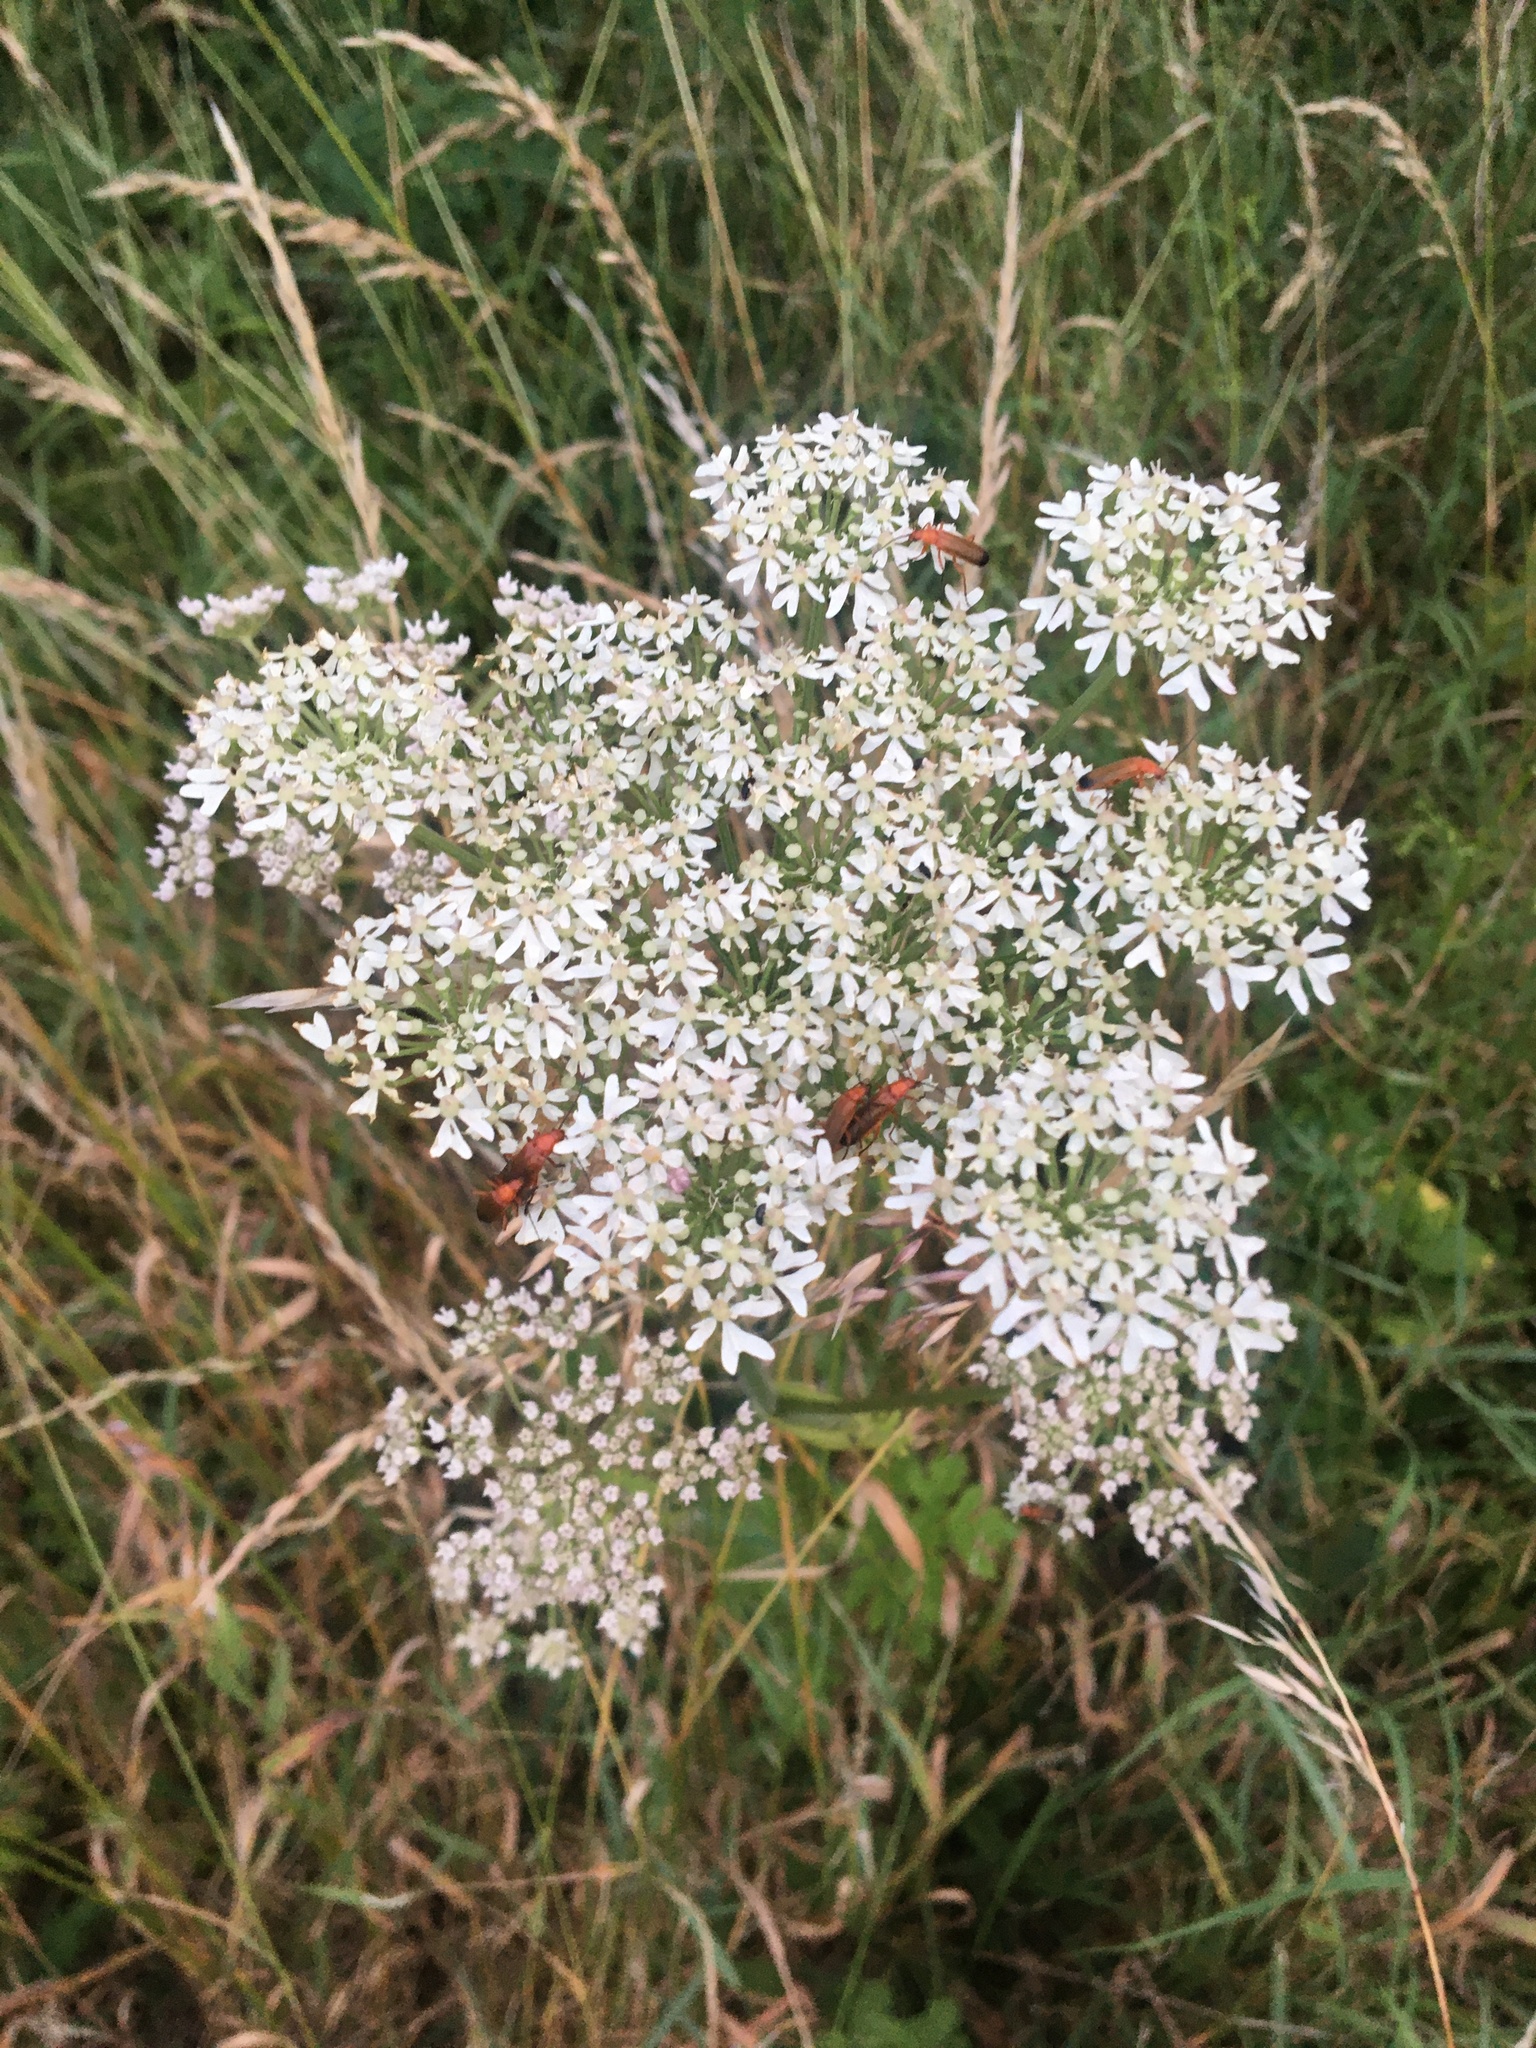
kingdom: Animalia
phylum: Arthropoda
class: Insecta
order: Coleoptera
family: Cantharidae
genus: Rhagonycha
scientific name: Rhagonycha fulva
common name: Common red soldier beetle
